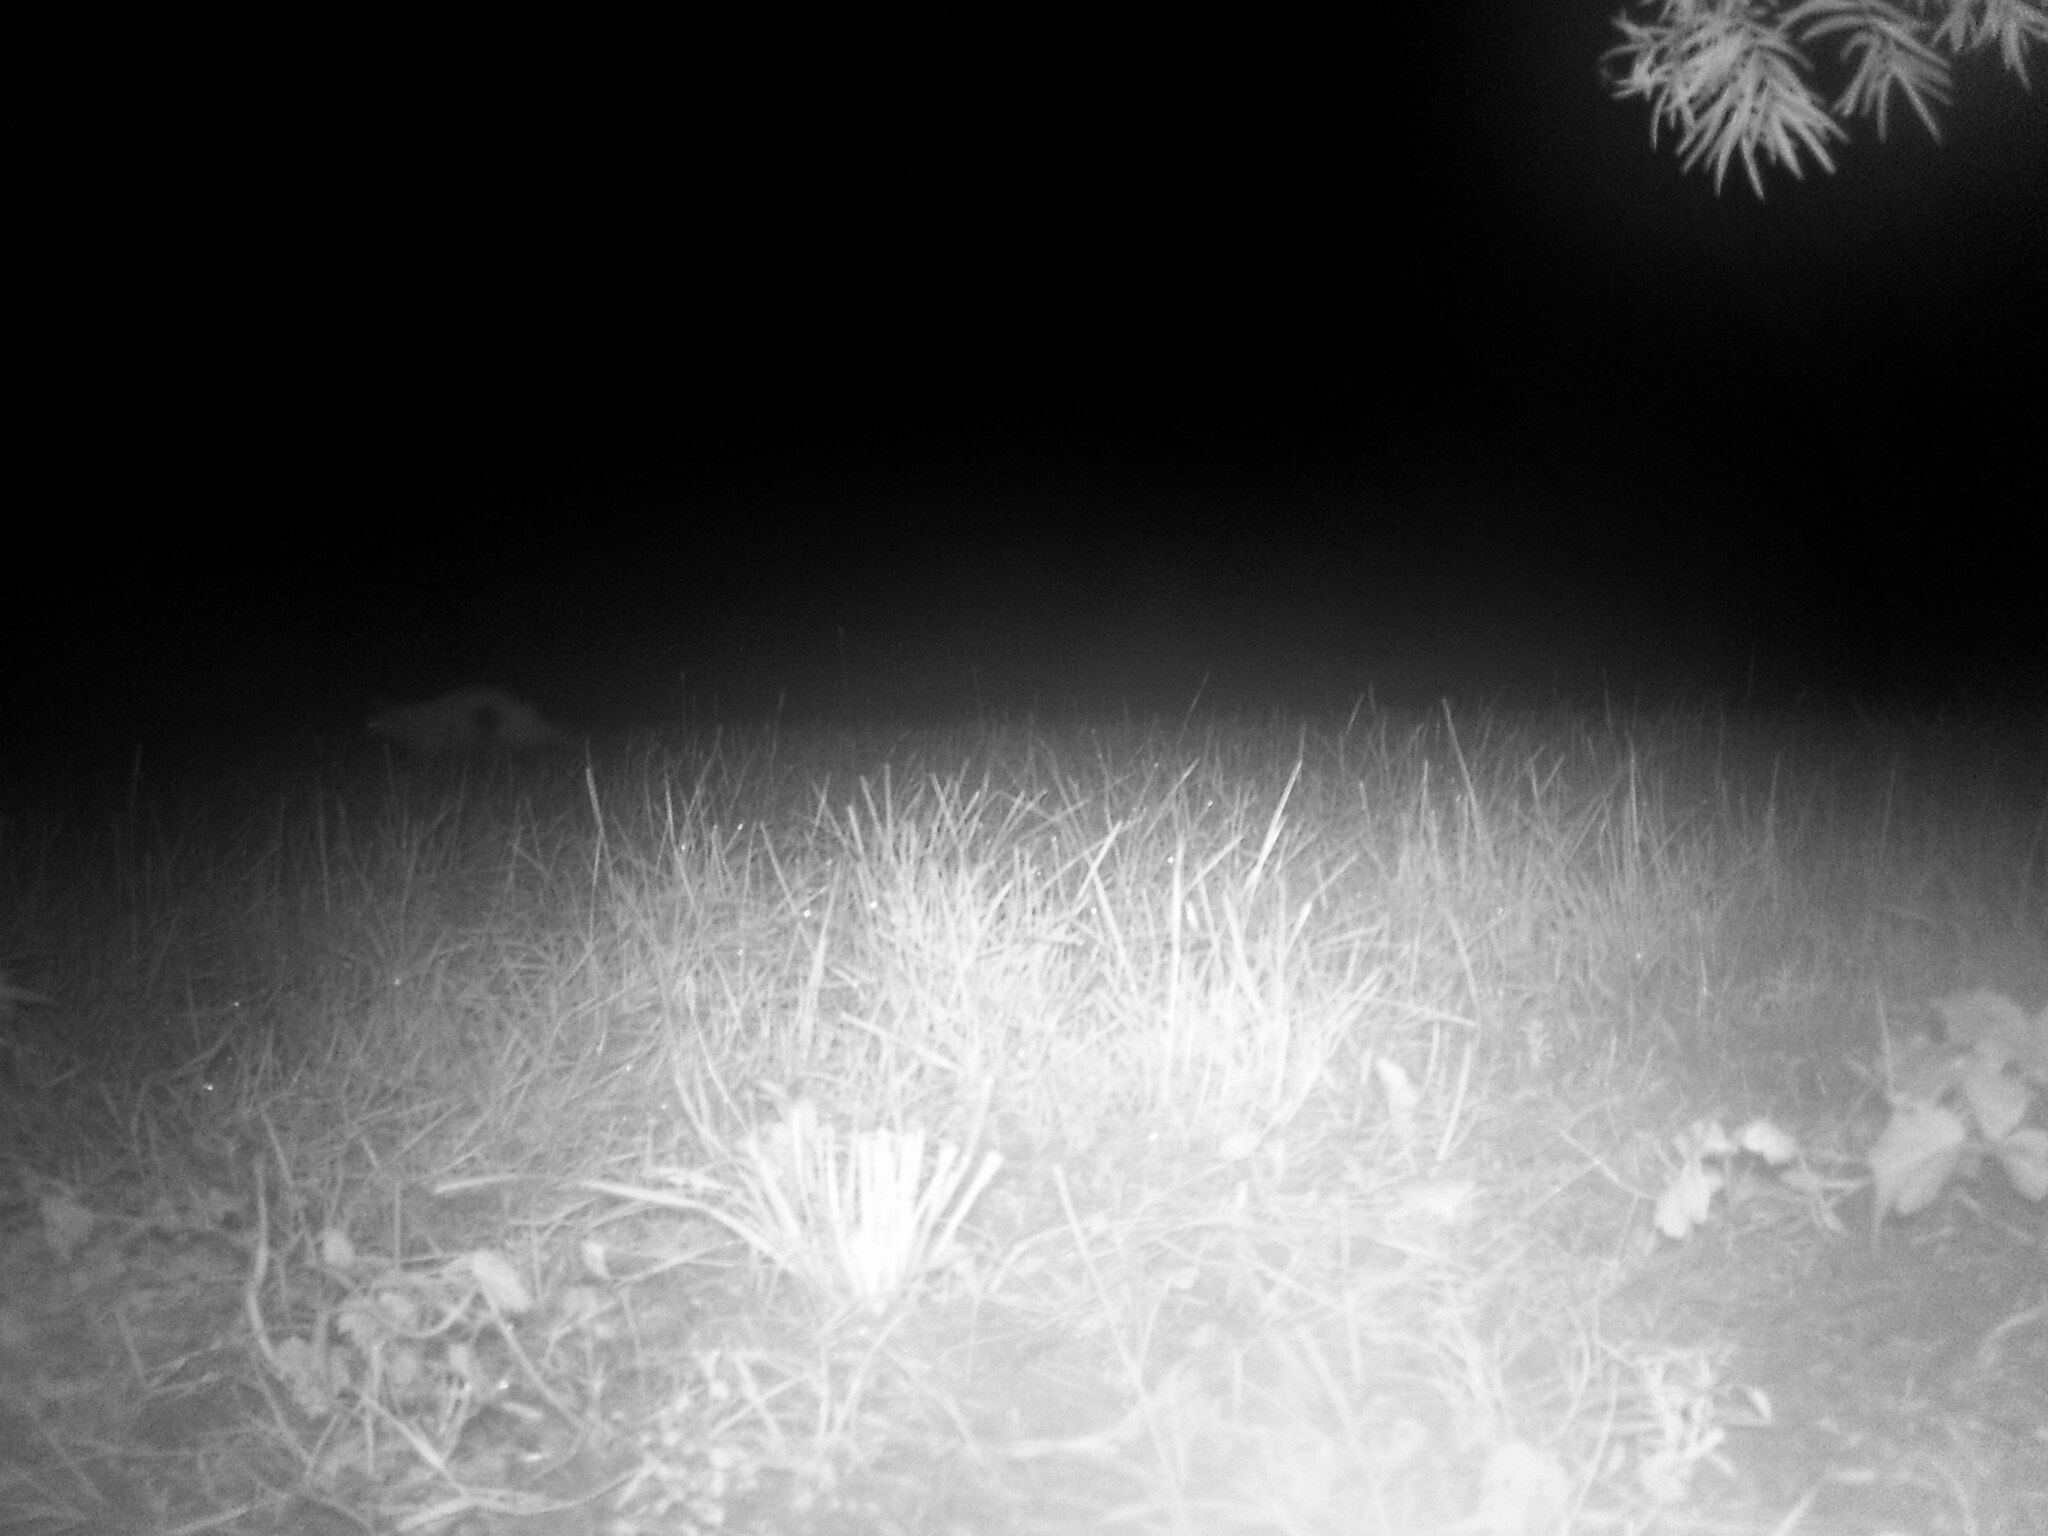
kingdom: Animalia
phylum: Chordata
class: Mammalia
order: Carnivora
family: Canidae
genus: Vulpes
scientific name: Vulpes vulpes
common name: Red fox
